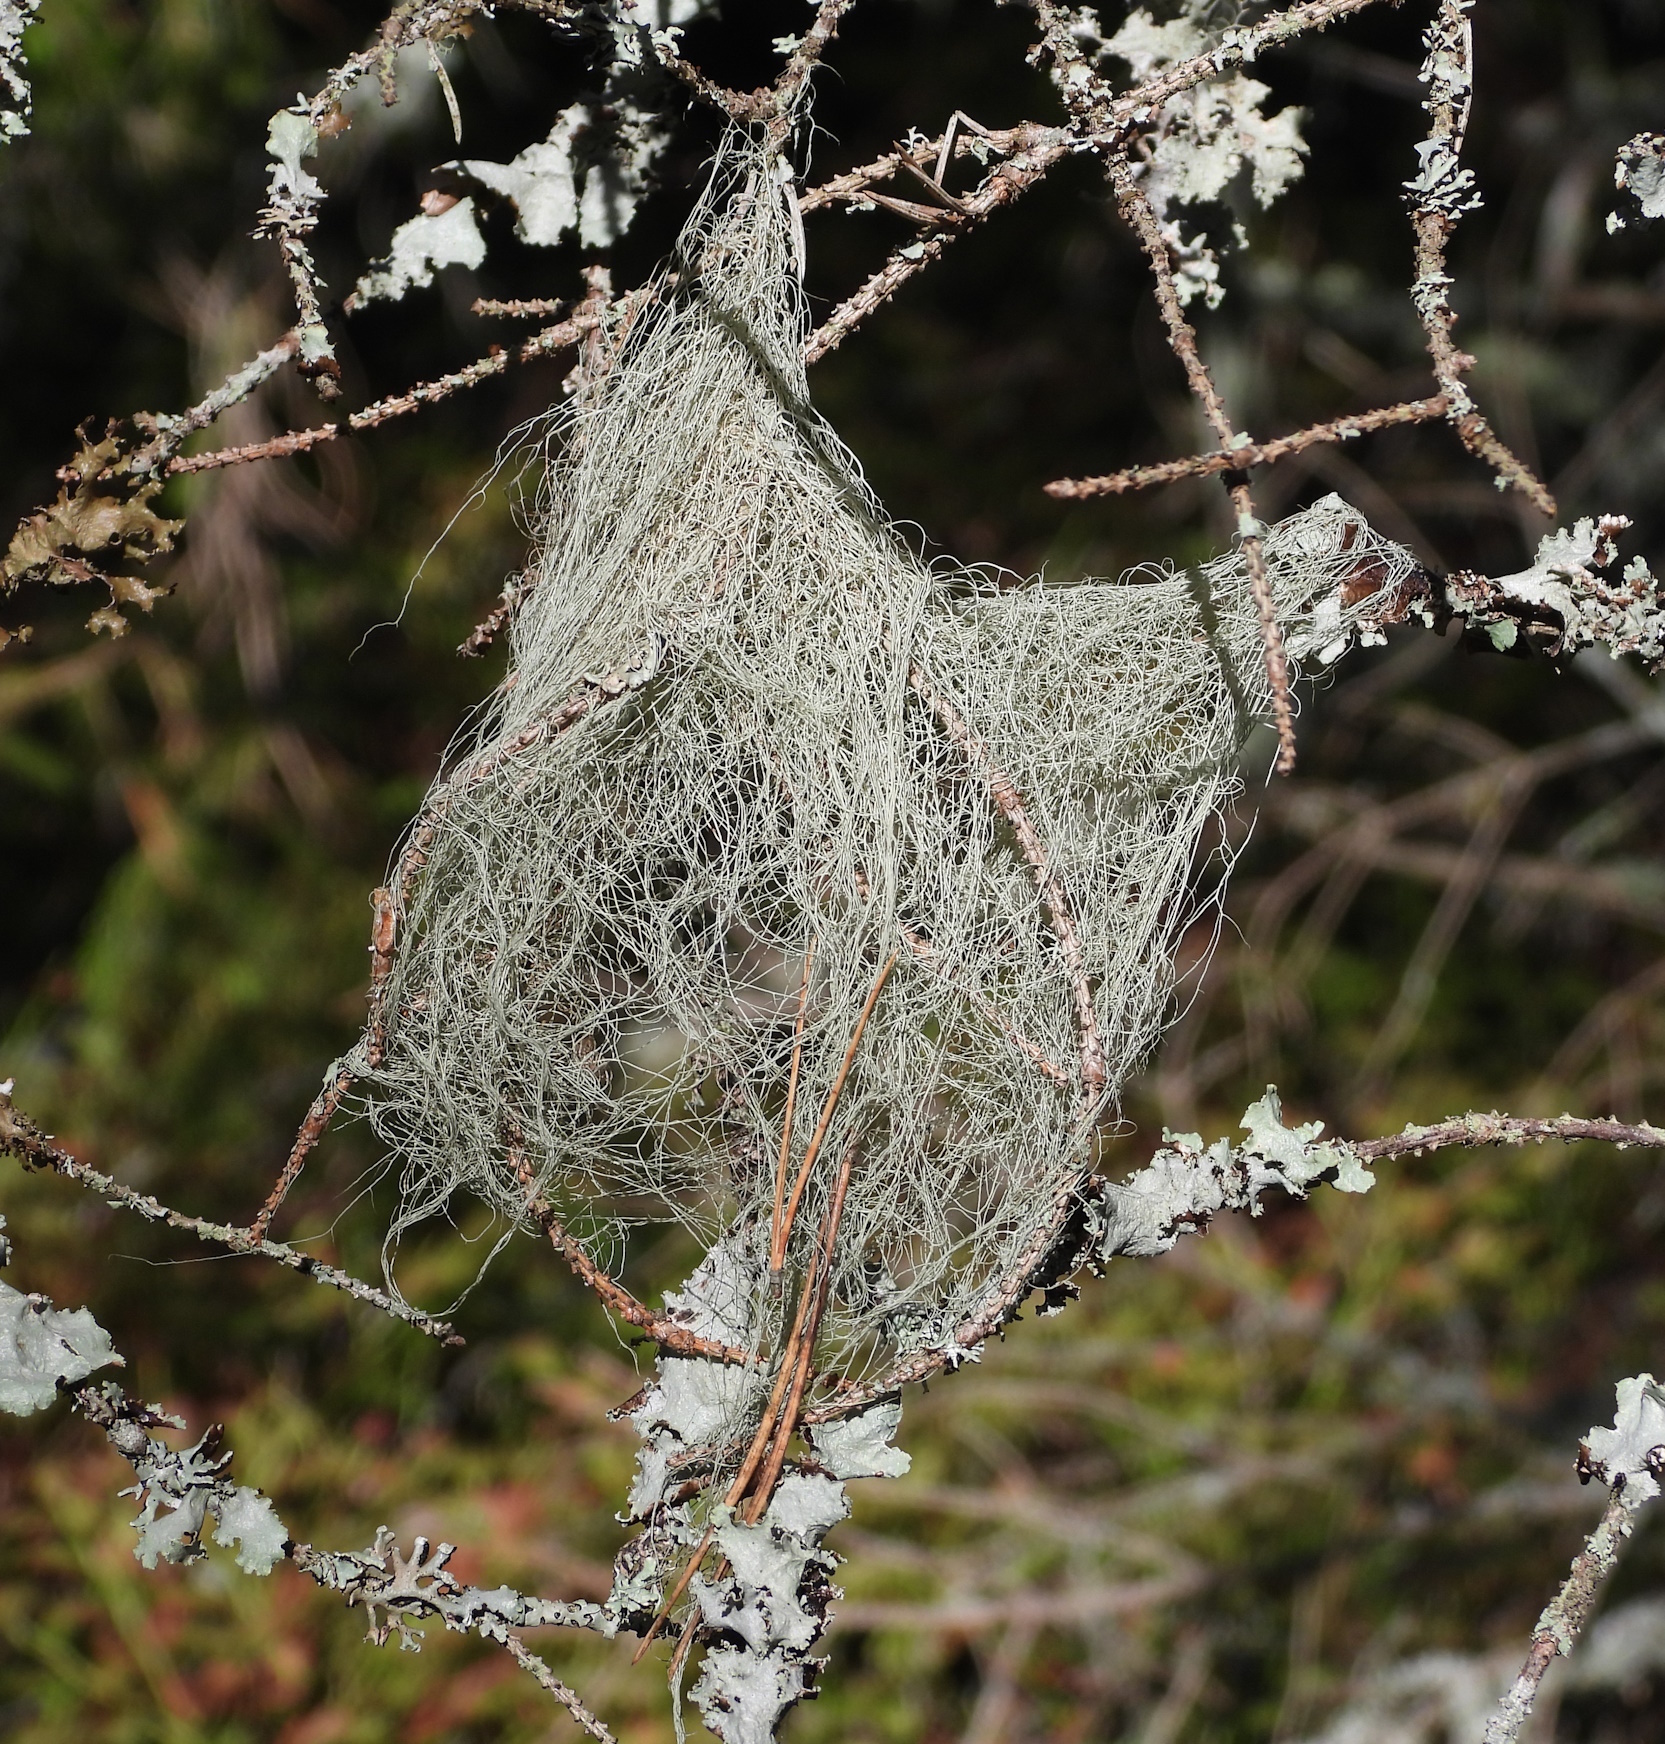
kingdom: Fungi
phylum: Ascomycota
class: Lecanoromycetes
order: Lecanorales
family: Parmeliaceae
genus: Bryoria
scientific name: Bryoria fuscescens
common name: Pale-footed horsehair lichen
